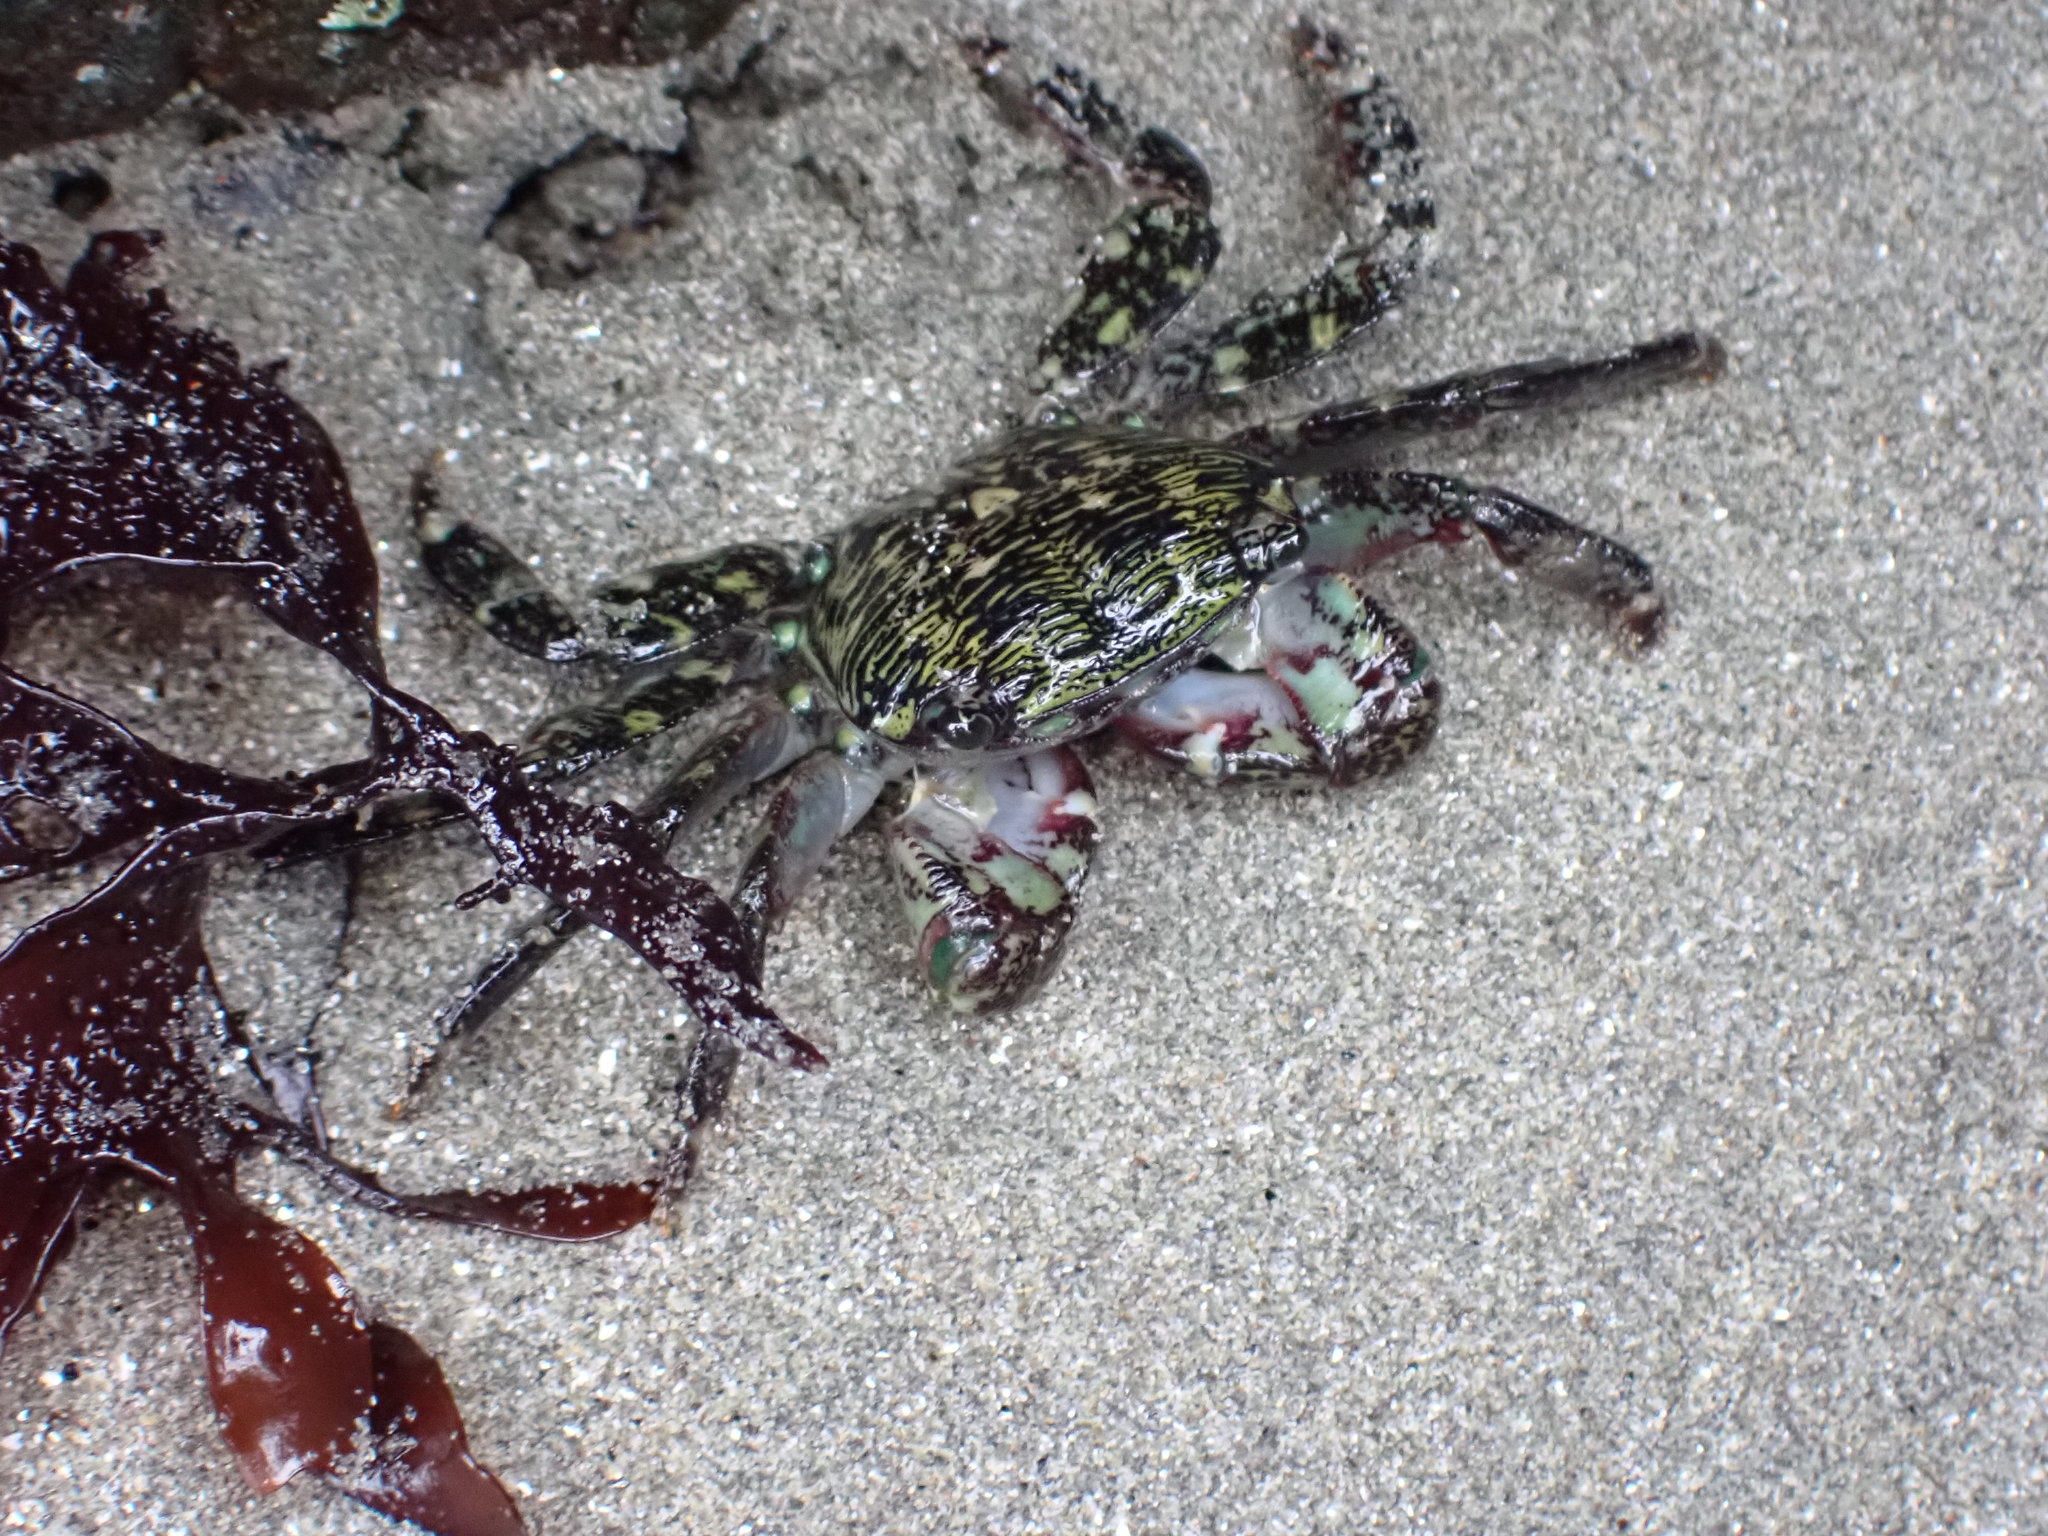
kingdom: Animalia
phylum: Arthropoda
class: Malacostraca
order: Decapoda
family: Grapsidae
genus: Pachygrapsus
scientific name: Pachygrapsus crassipes
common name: Striped shore crab
